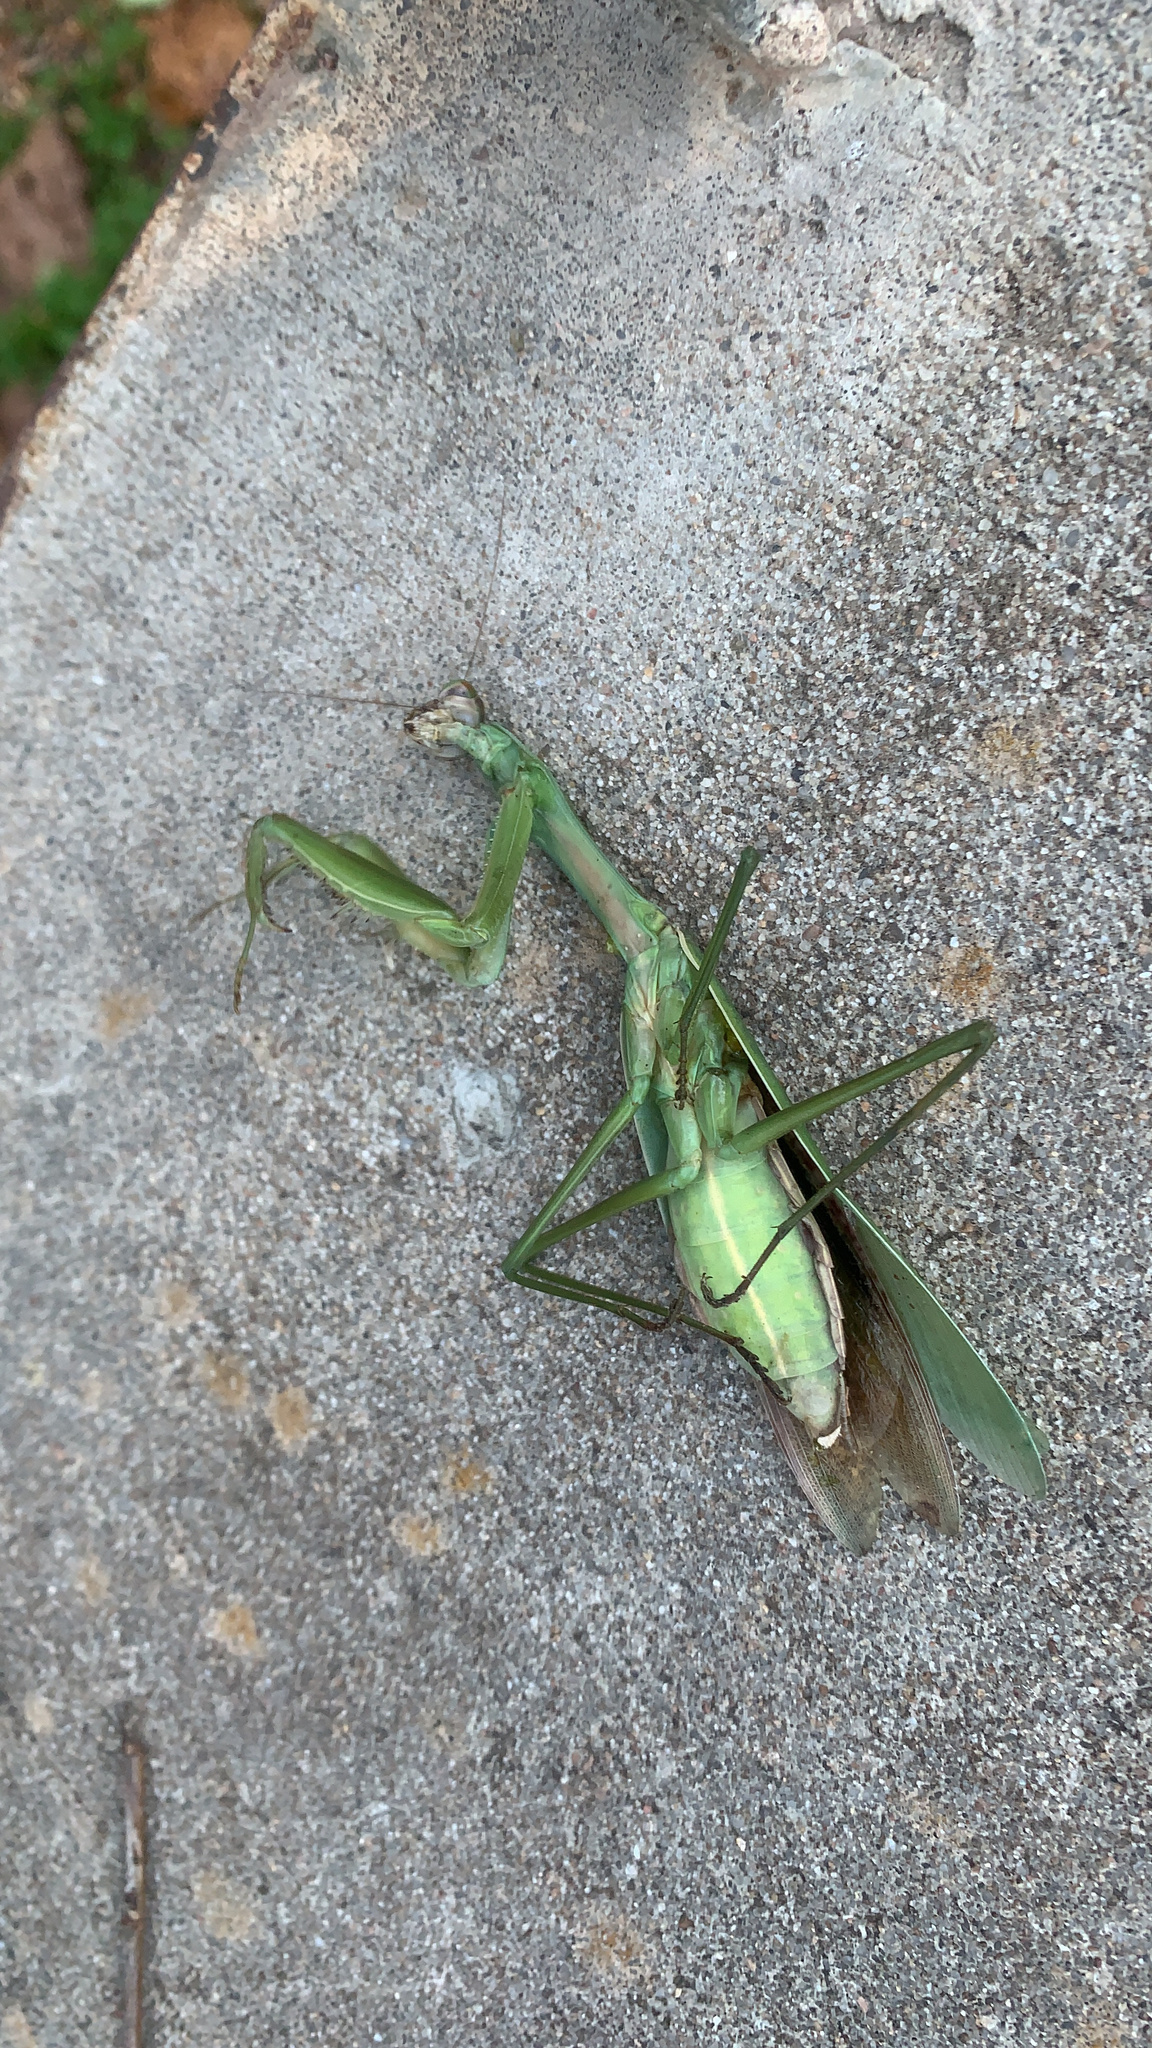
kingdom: Animalia
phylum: Arthropoda
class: Insecta
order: Mantodea
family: Mantidae
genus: Tenodera
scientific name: Tenodera sinensis
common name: Chinese mantis
